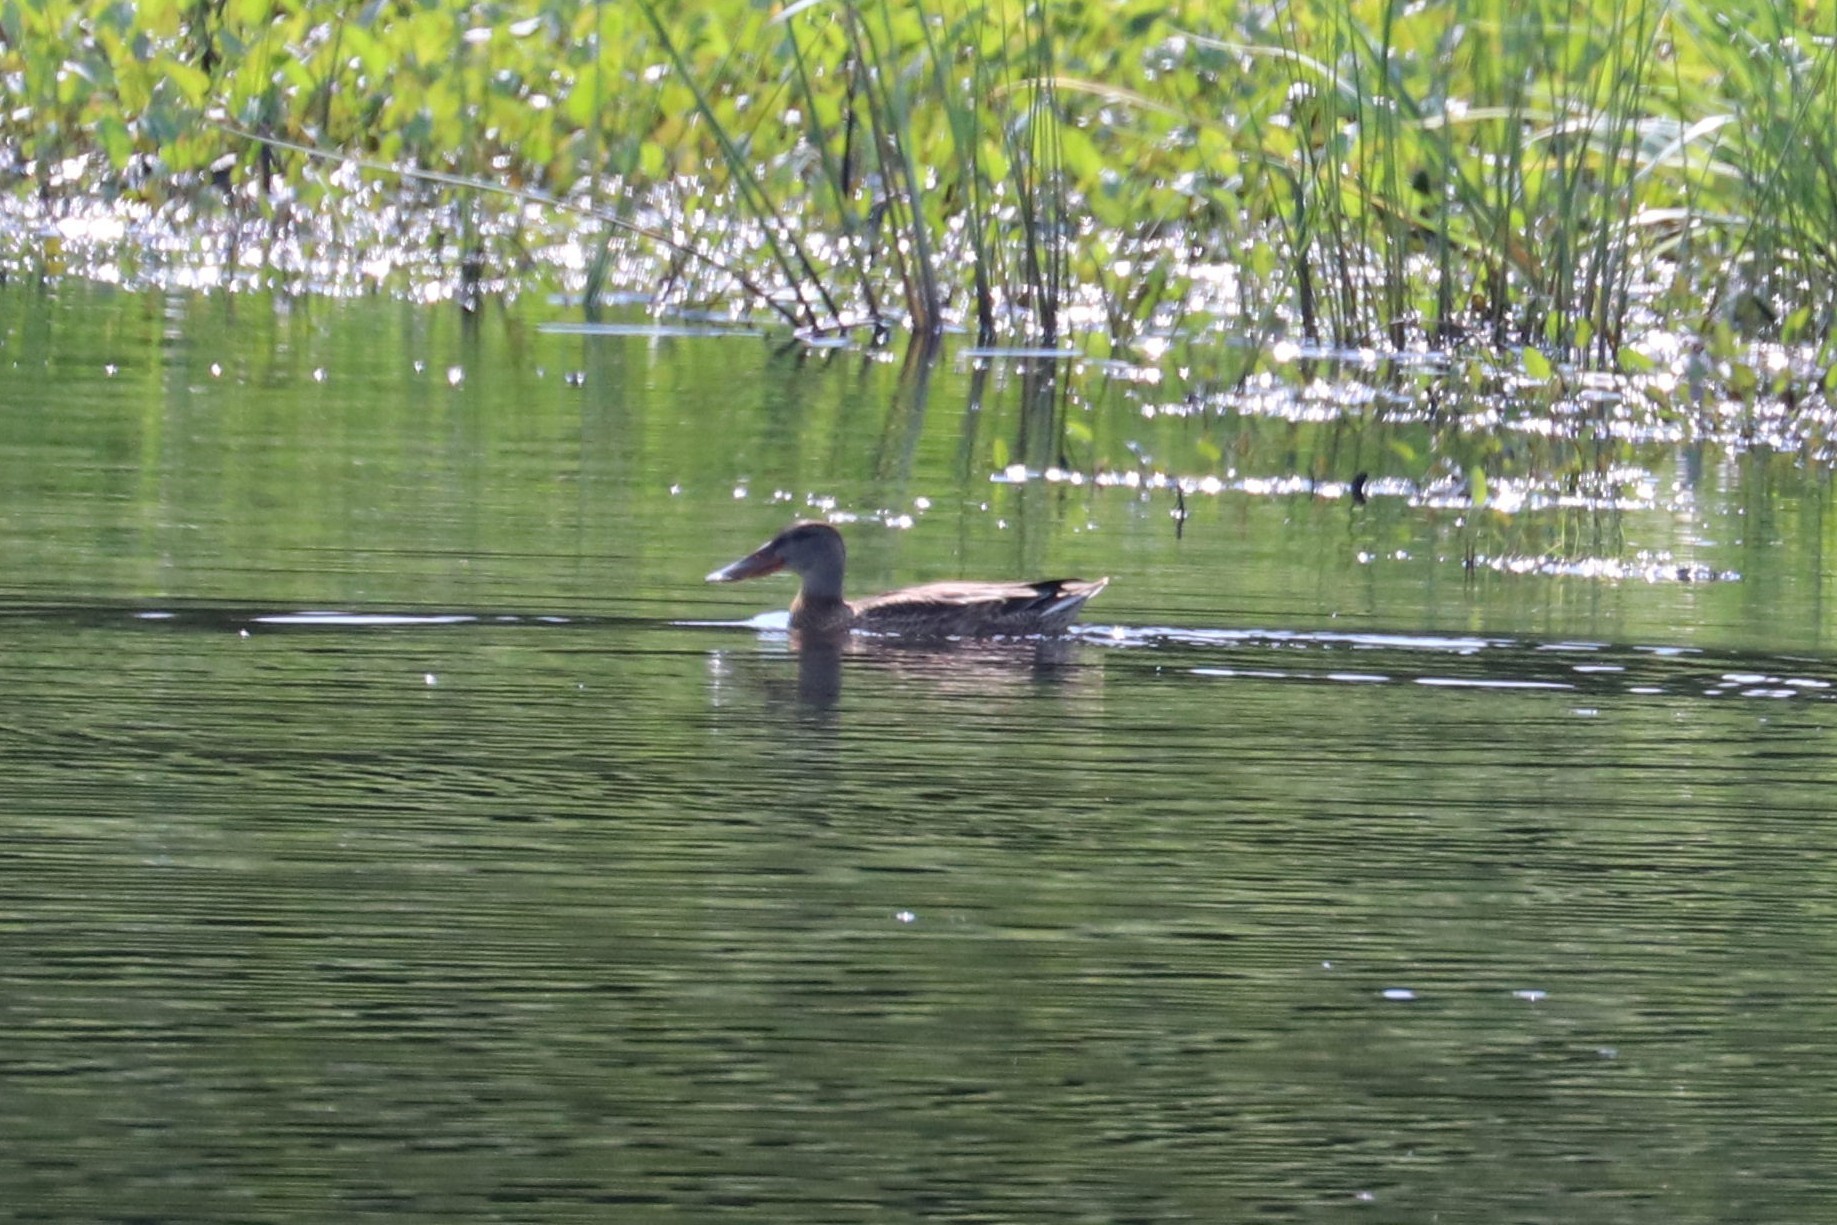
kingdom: Animalia
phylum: Chordata
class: Aves
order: Anseriformes
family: Anatidae
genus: Spatula
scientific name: Spatula clypeata
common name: Northern shoveler
